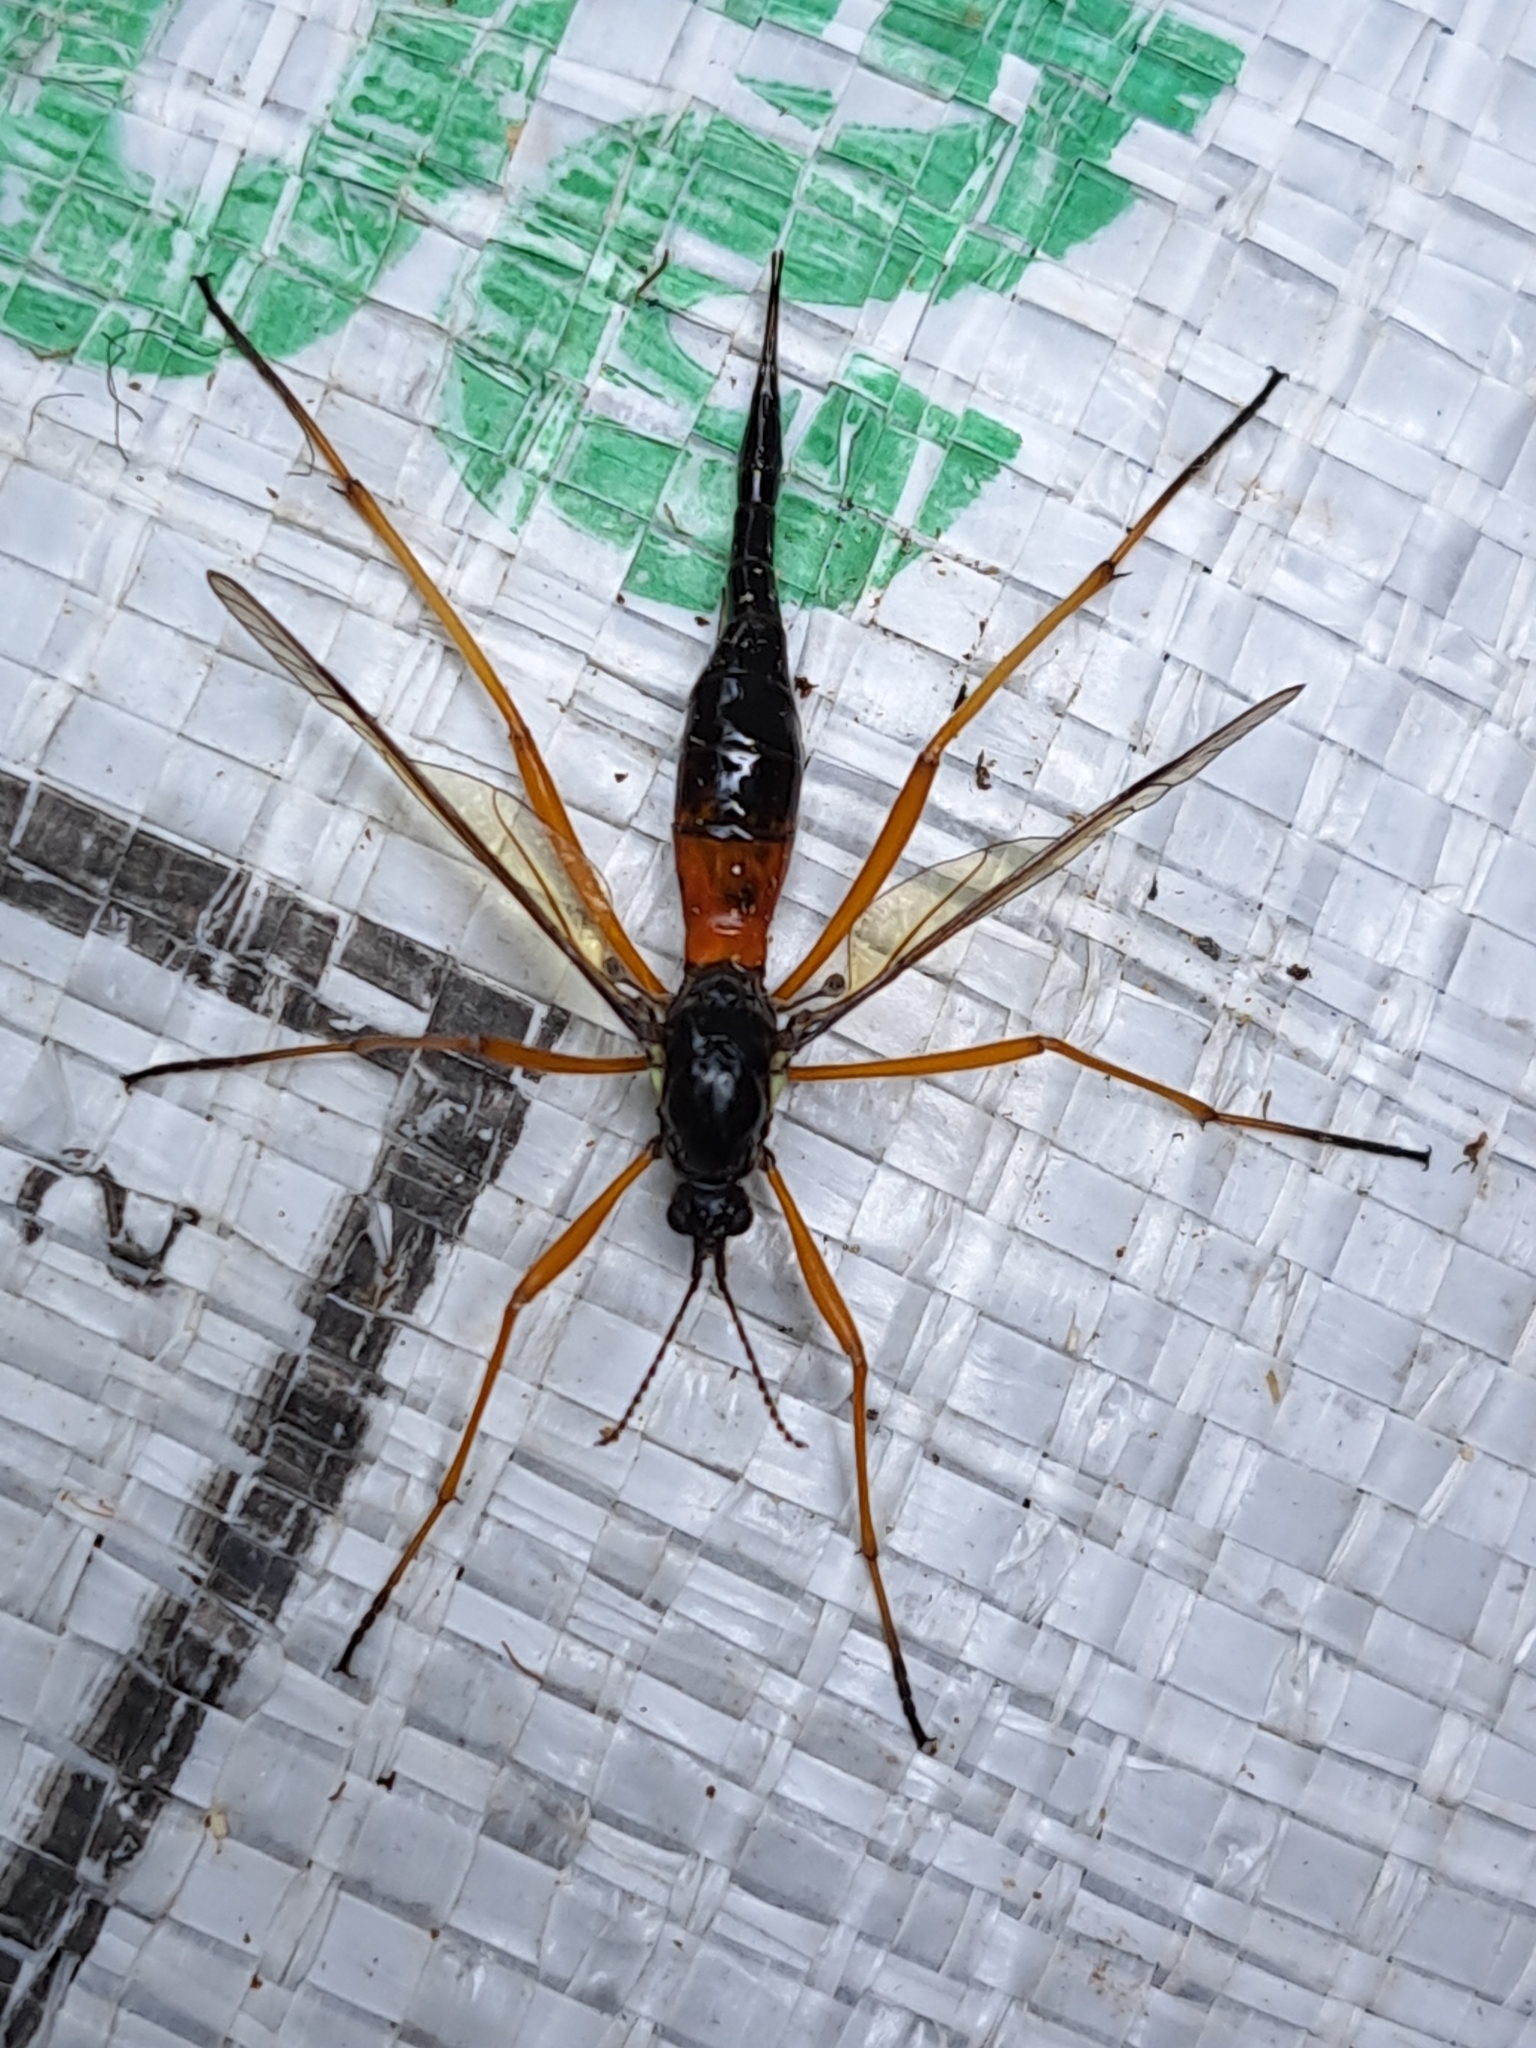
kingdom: Animalia
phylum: Arthropoda
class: Insecta
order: Diptera
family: Tipulidae
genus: Tanyptera
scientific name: Tanyptera dorsalis
